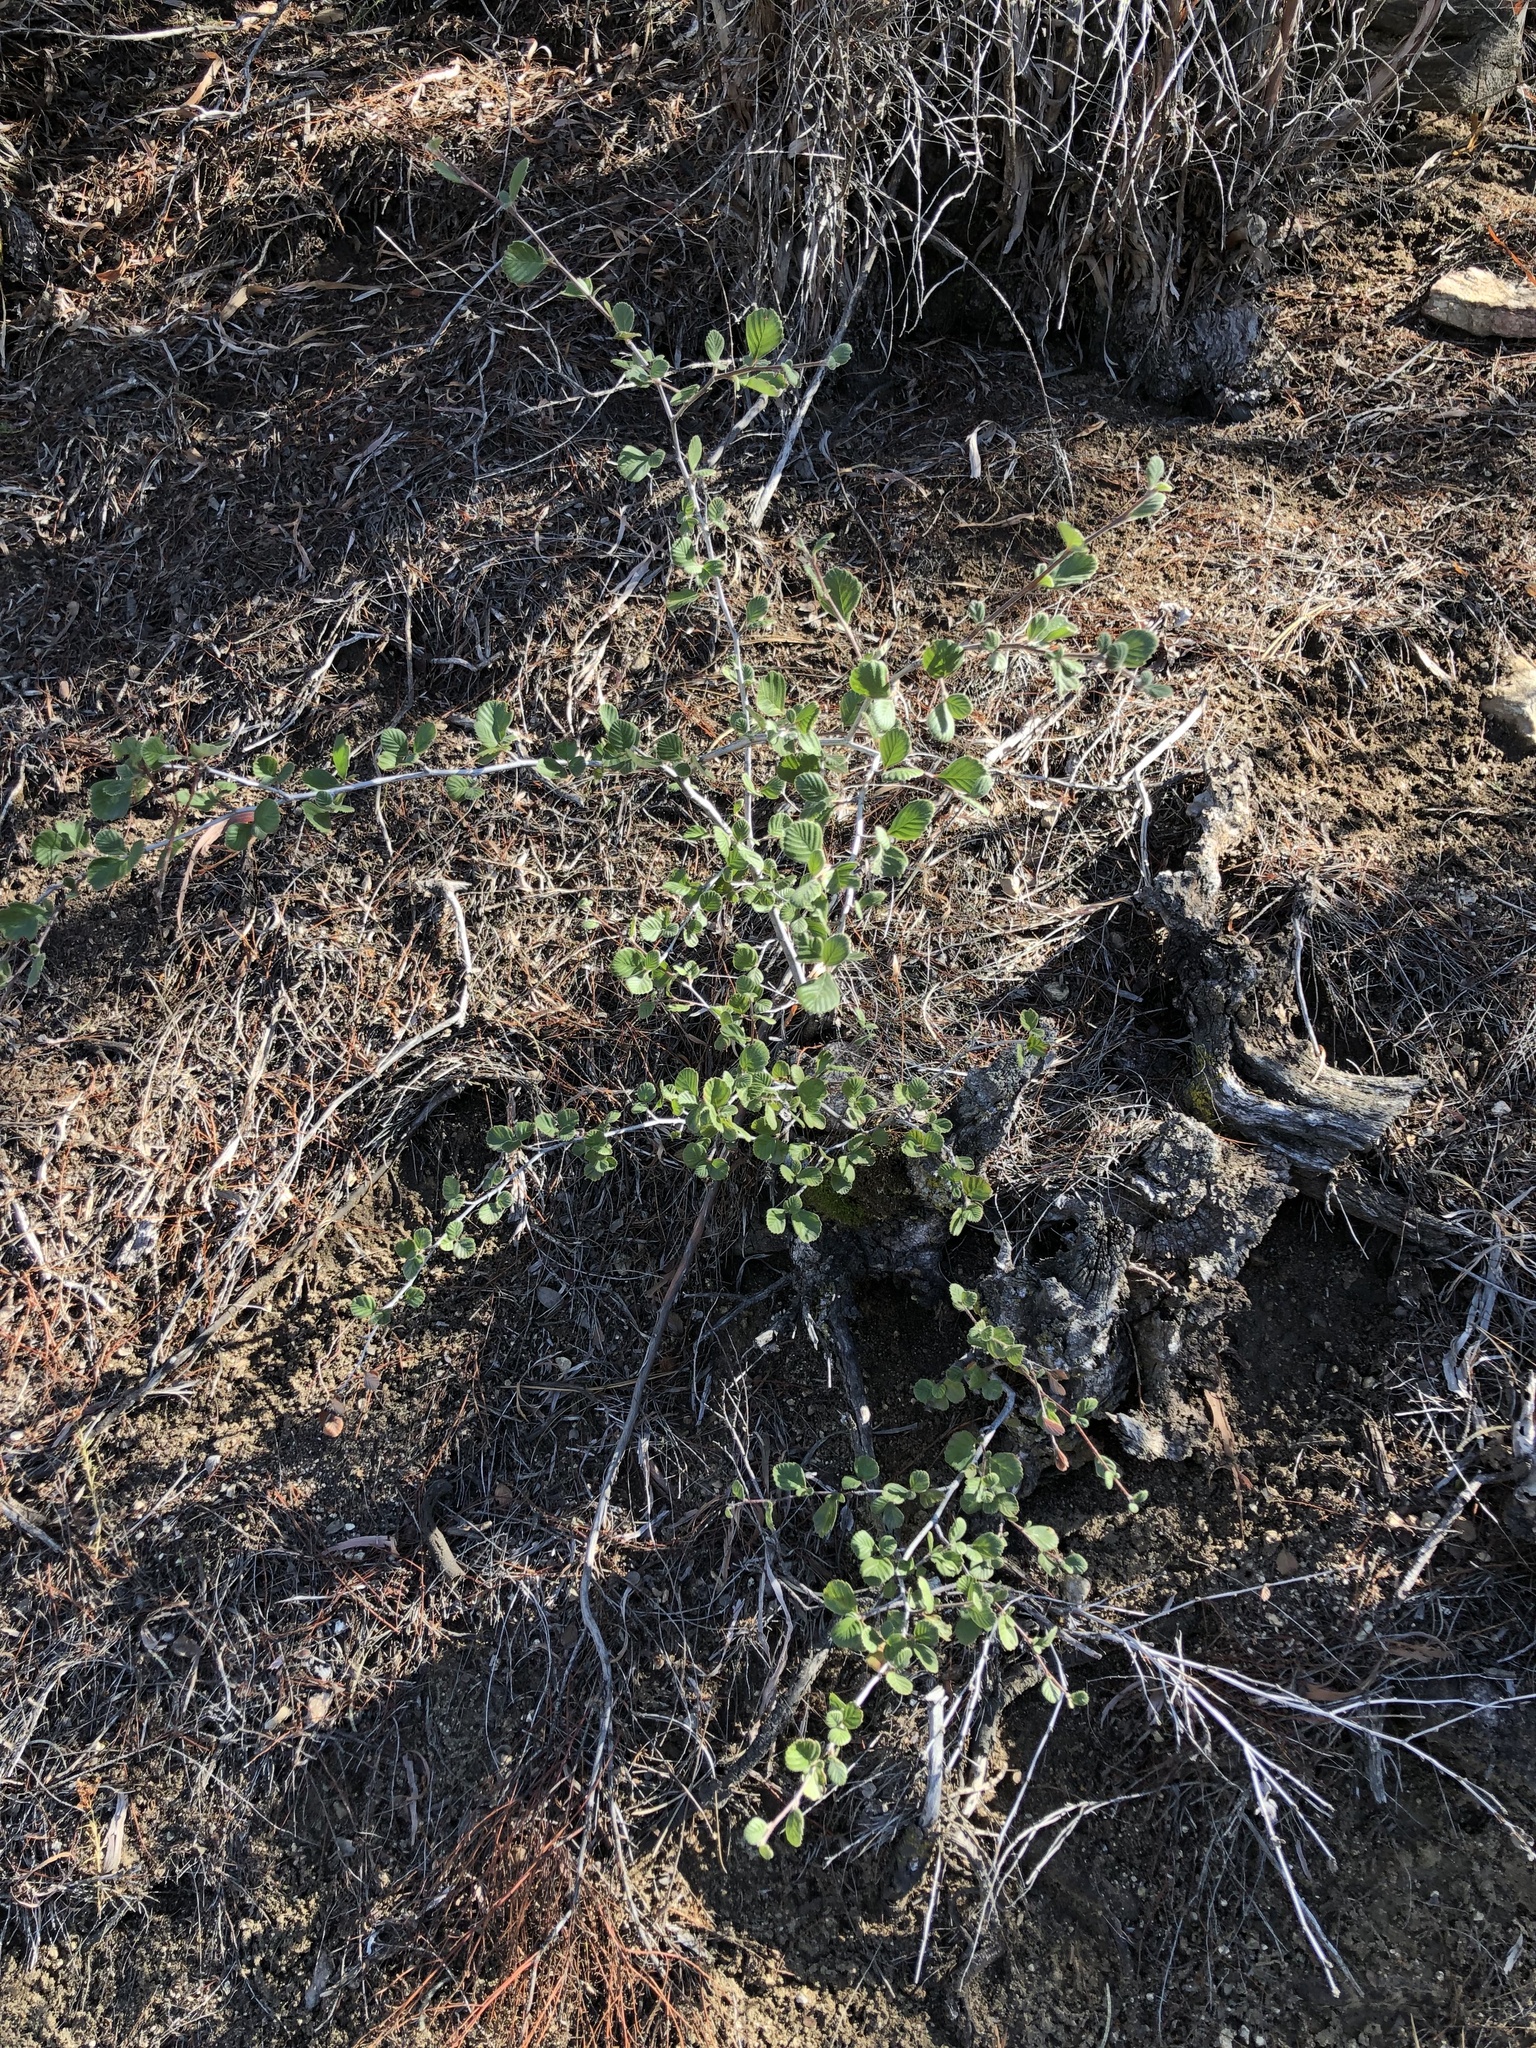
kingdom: Plantae
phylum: Tracheophyta
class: Magnoliopsida
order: Rosales
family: Rosaceae
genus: Cercocarpus
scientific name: Cercocarpus betuloides
